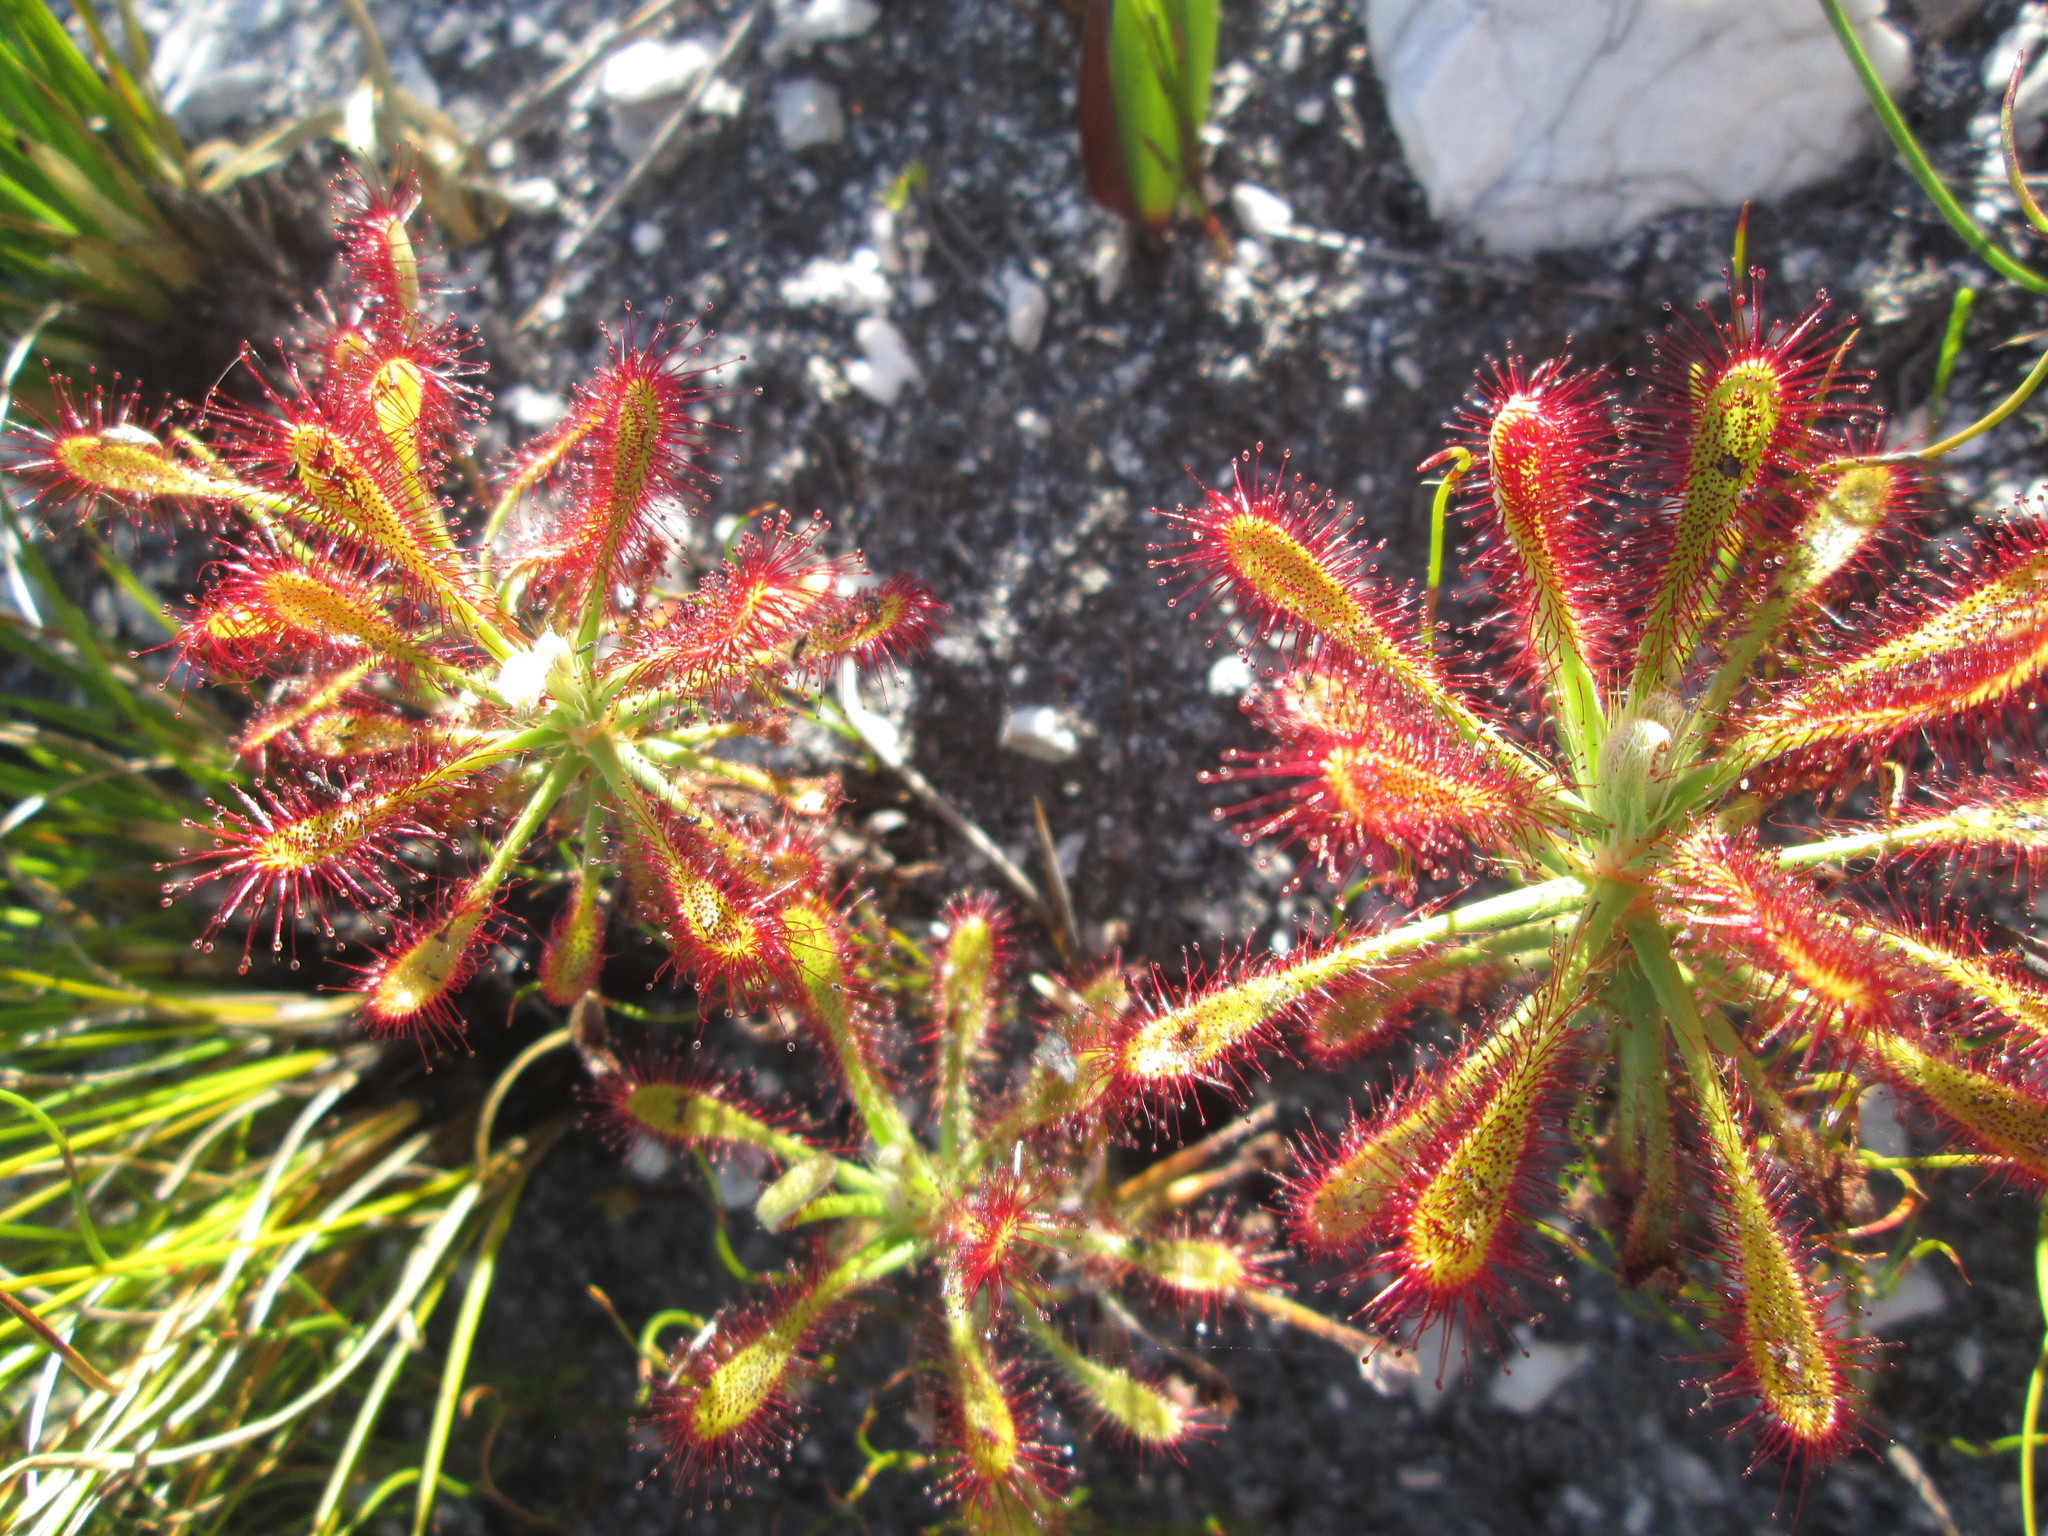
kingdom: Plantae
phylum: Tracheophyta
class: Magnoliopsida
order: Caryophyllales
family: Droseraceae
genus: Drosera
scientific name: Drosera glabripes
